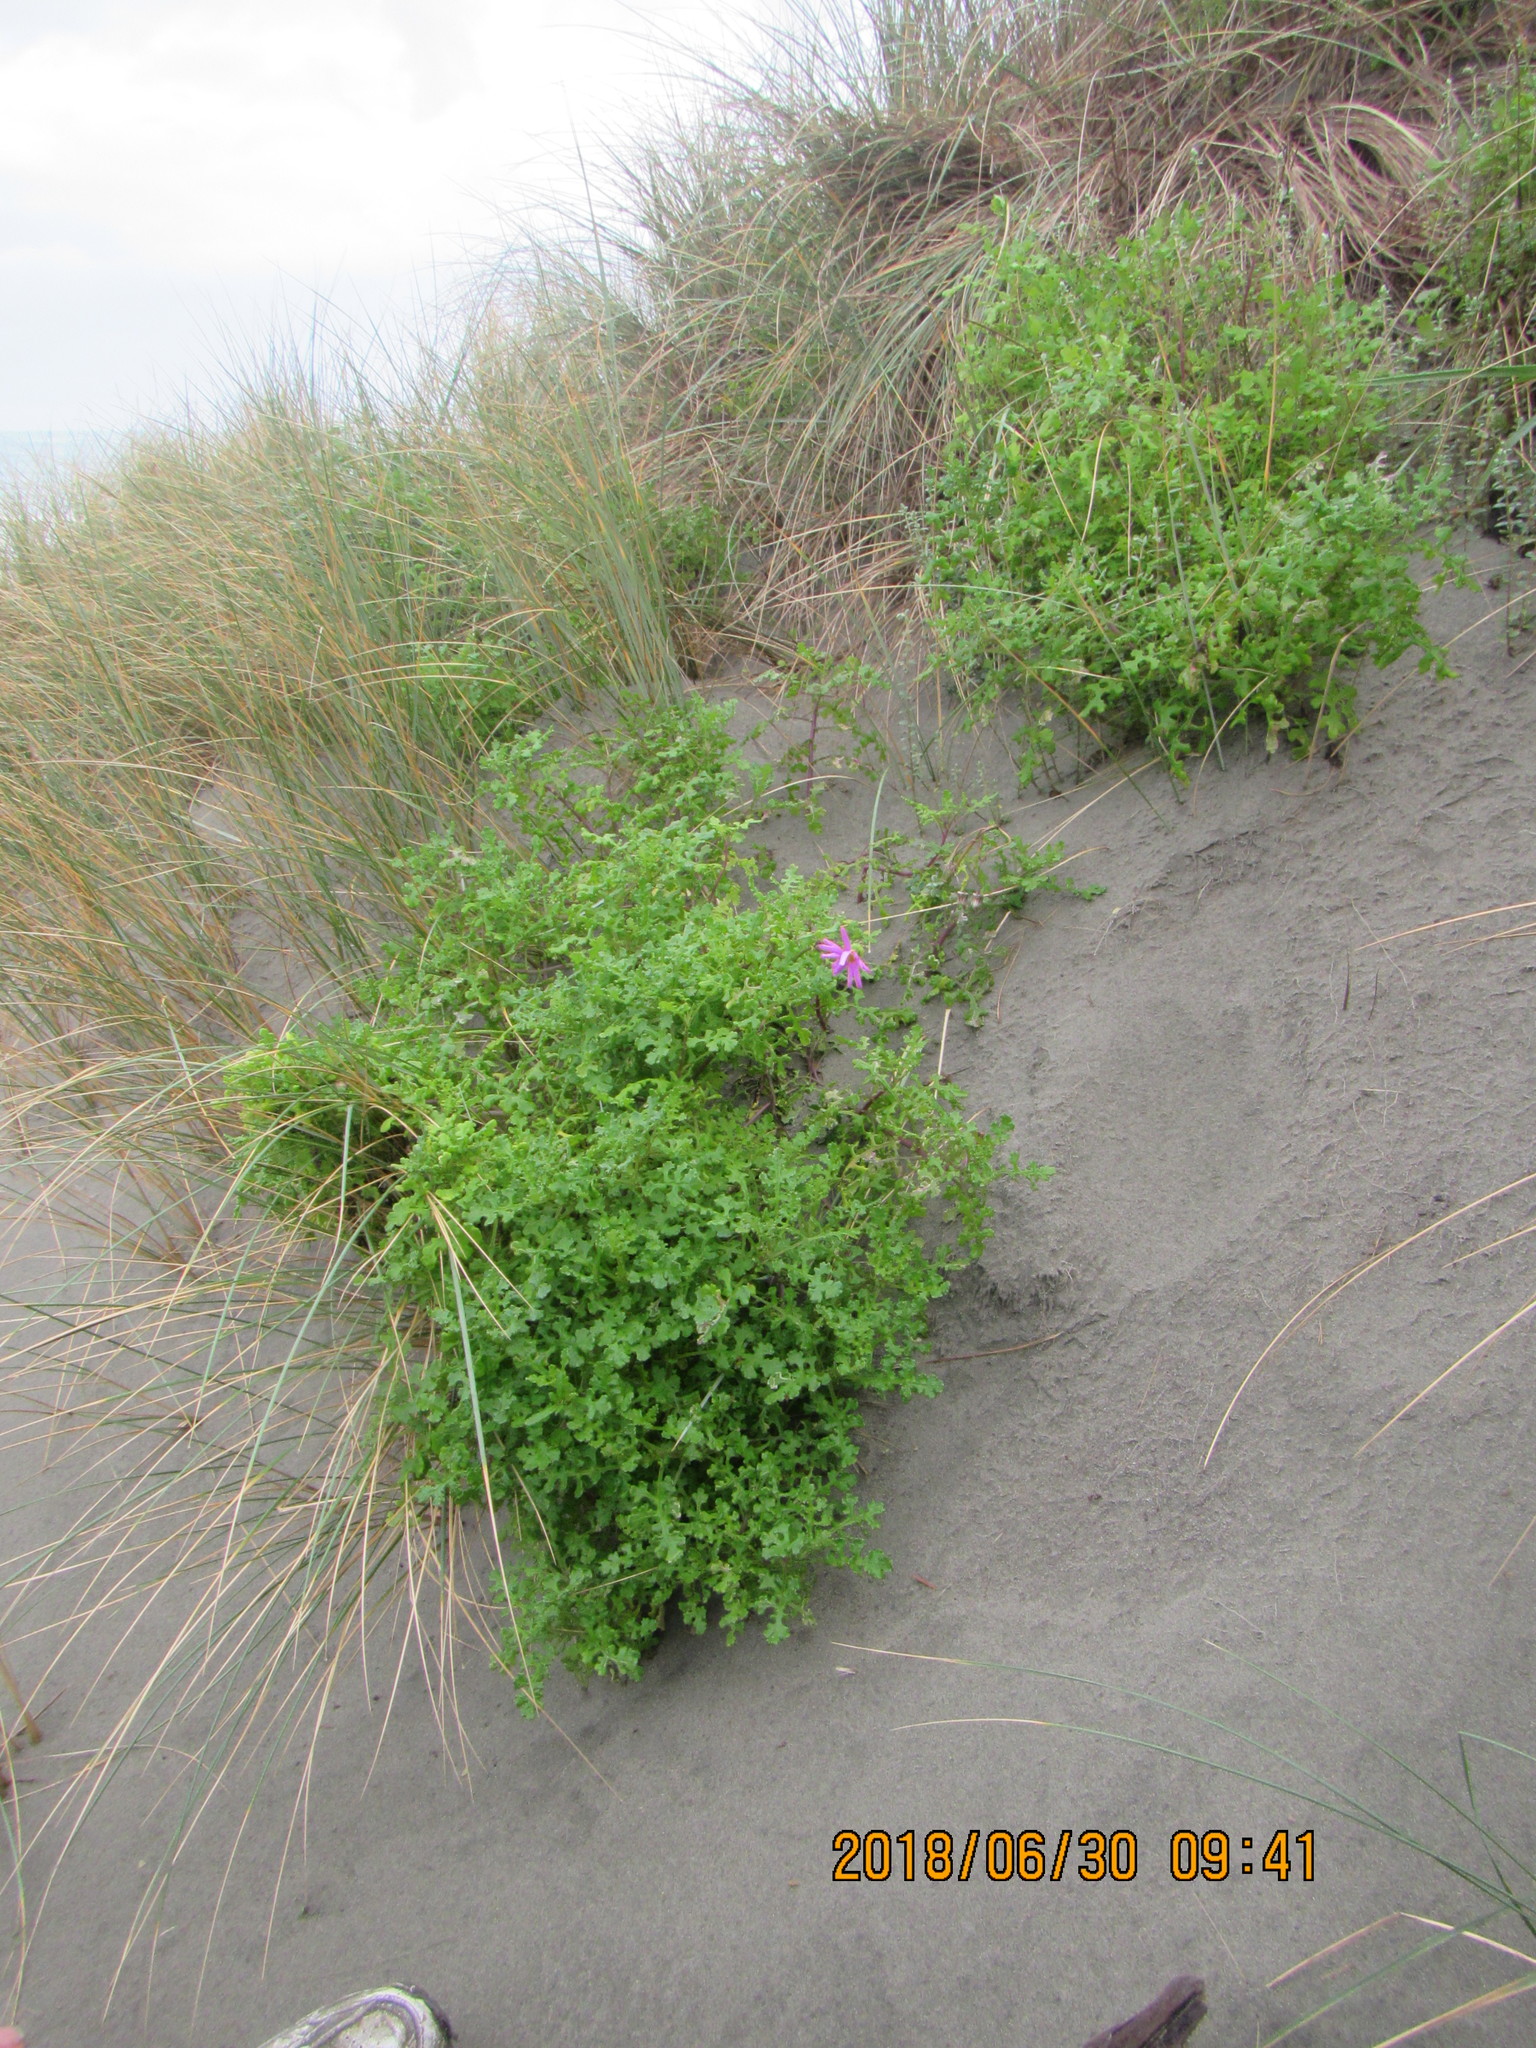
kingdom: Plantae
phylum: Tracheophyta
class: Magnoliopsida
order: Asterales
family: Asteraceae
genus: Senecio
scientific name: Senecio elegans
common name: Purple groundsel
